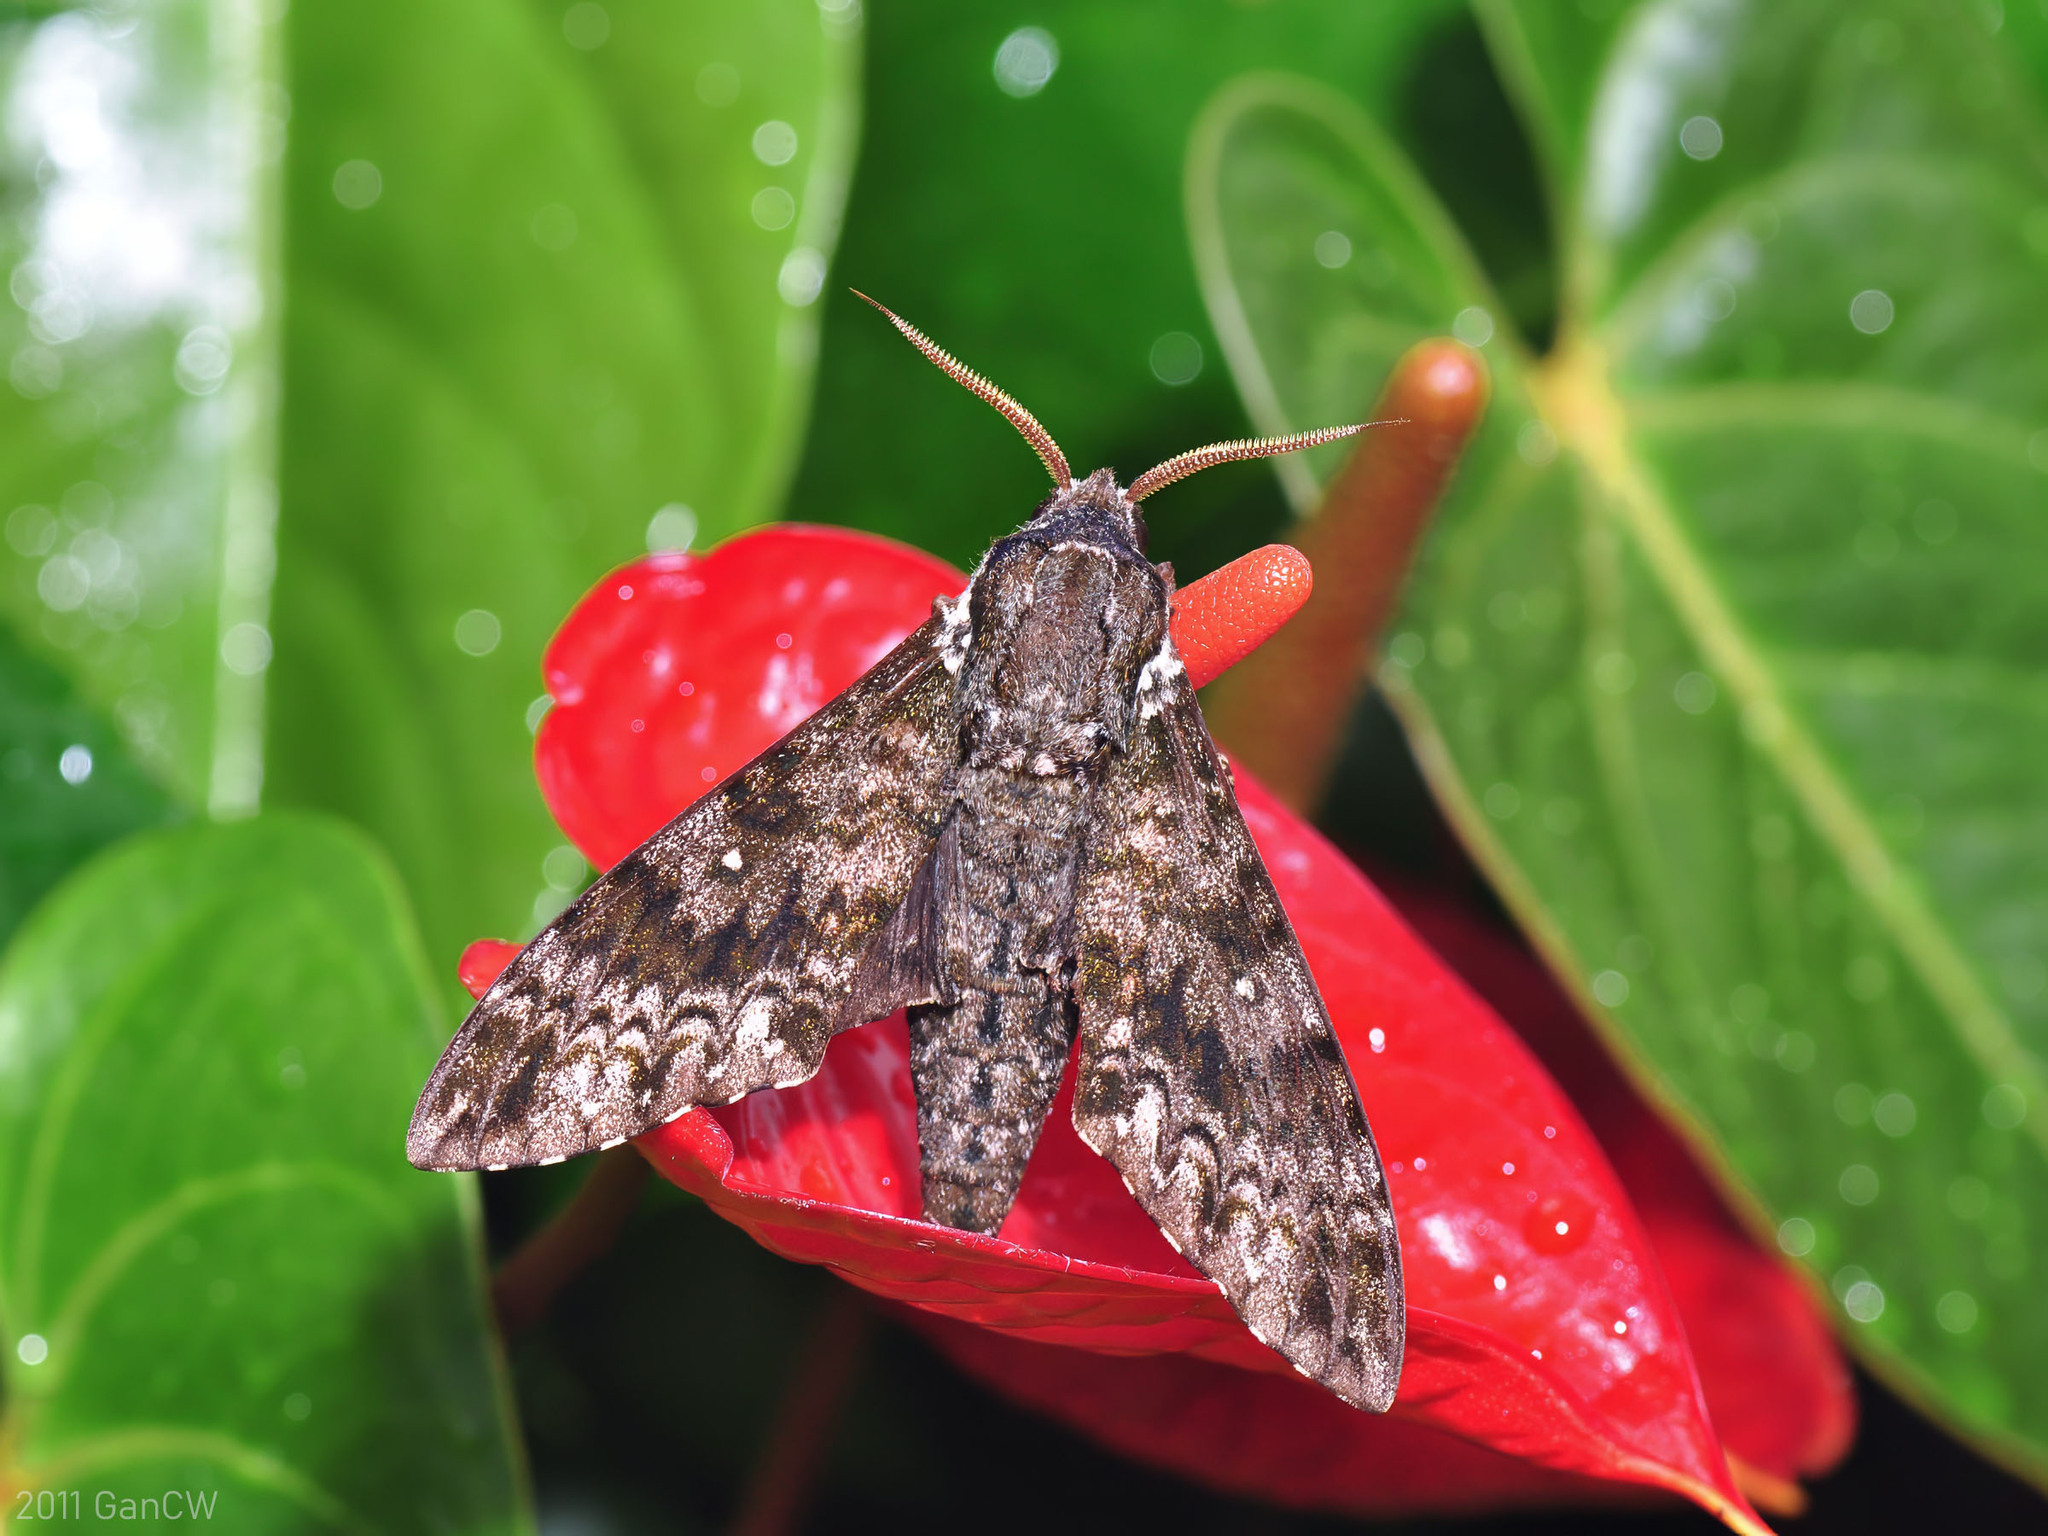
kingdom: Animalia
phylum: Arthropoda
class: Insecta
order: Lepidoptera
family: Sphingidae
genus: Dolbina
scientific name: Dolbina borneensis
